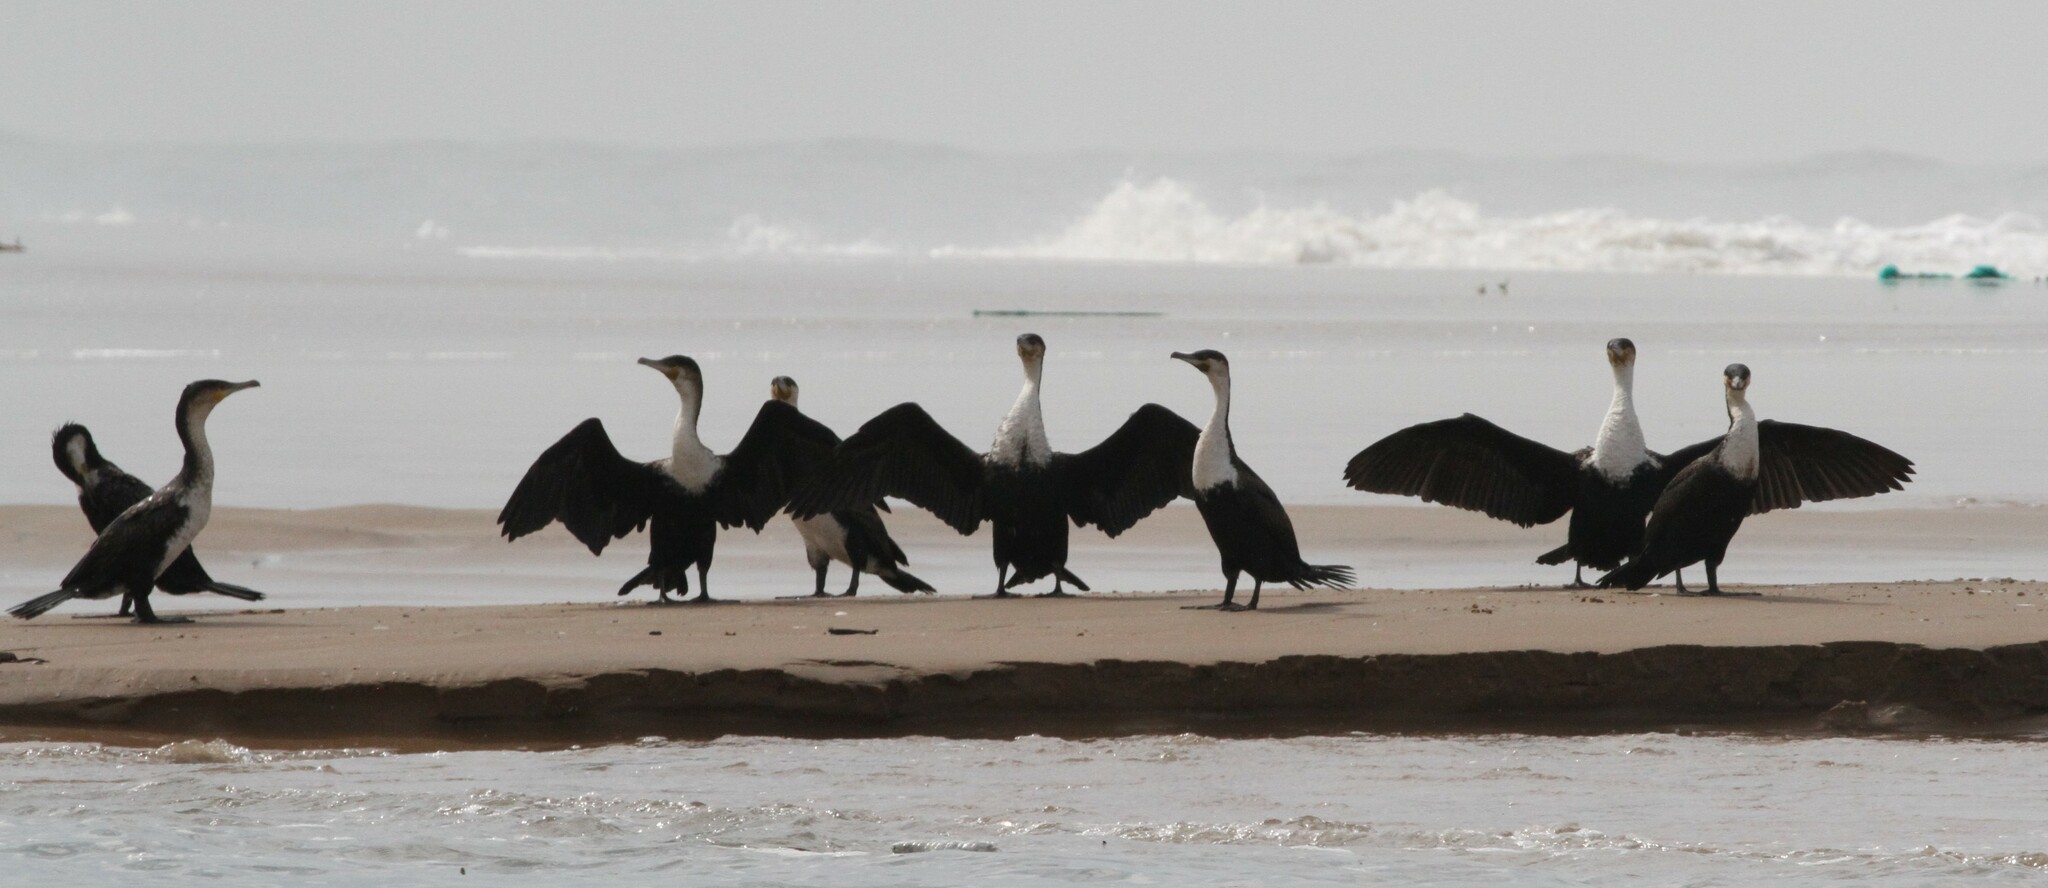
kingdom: Animalia
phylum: Chordata
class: Aves
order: Suliformes
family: Phalacrocoracidae
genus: Phalacrocorax
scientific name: Phalacrocorax carbo
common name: Great cormorant
